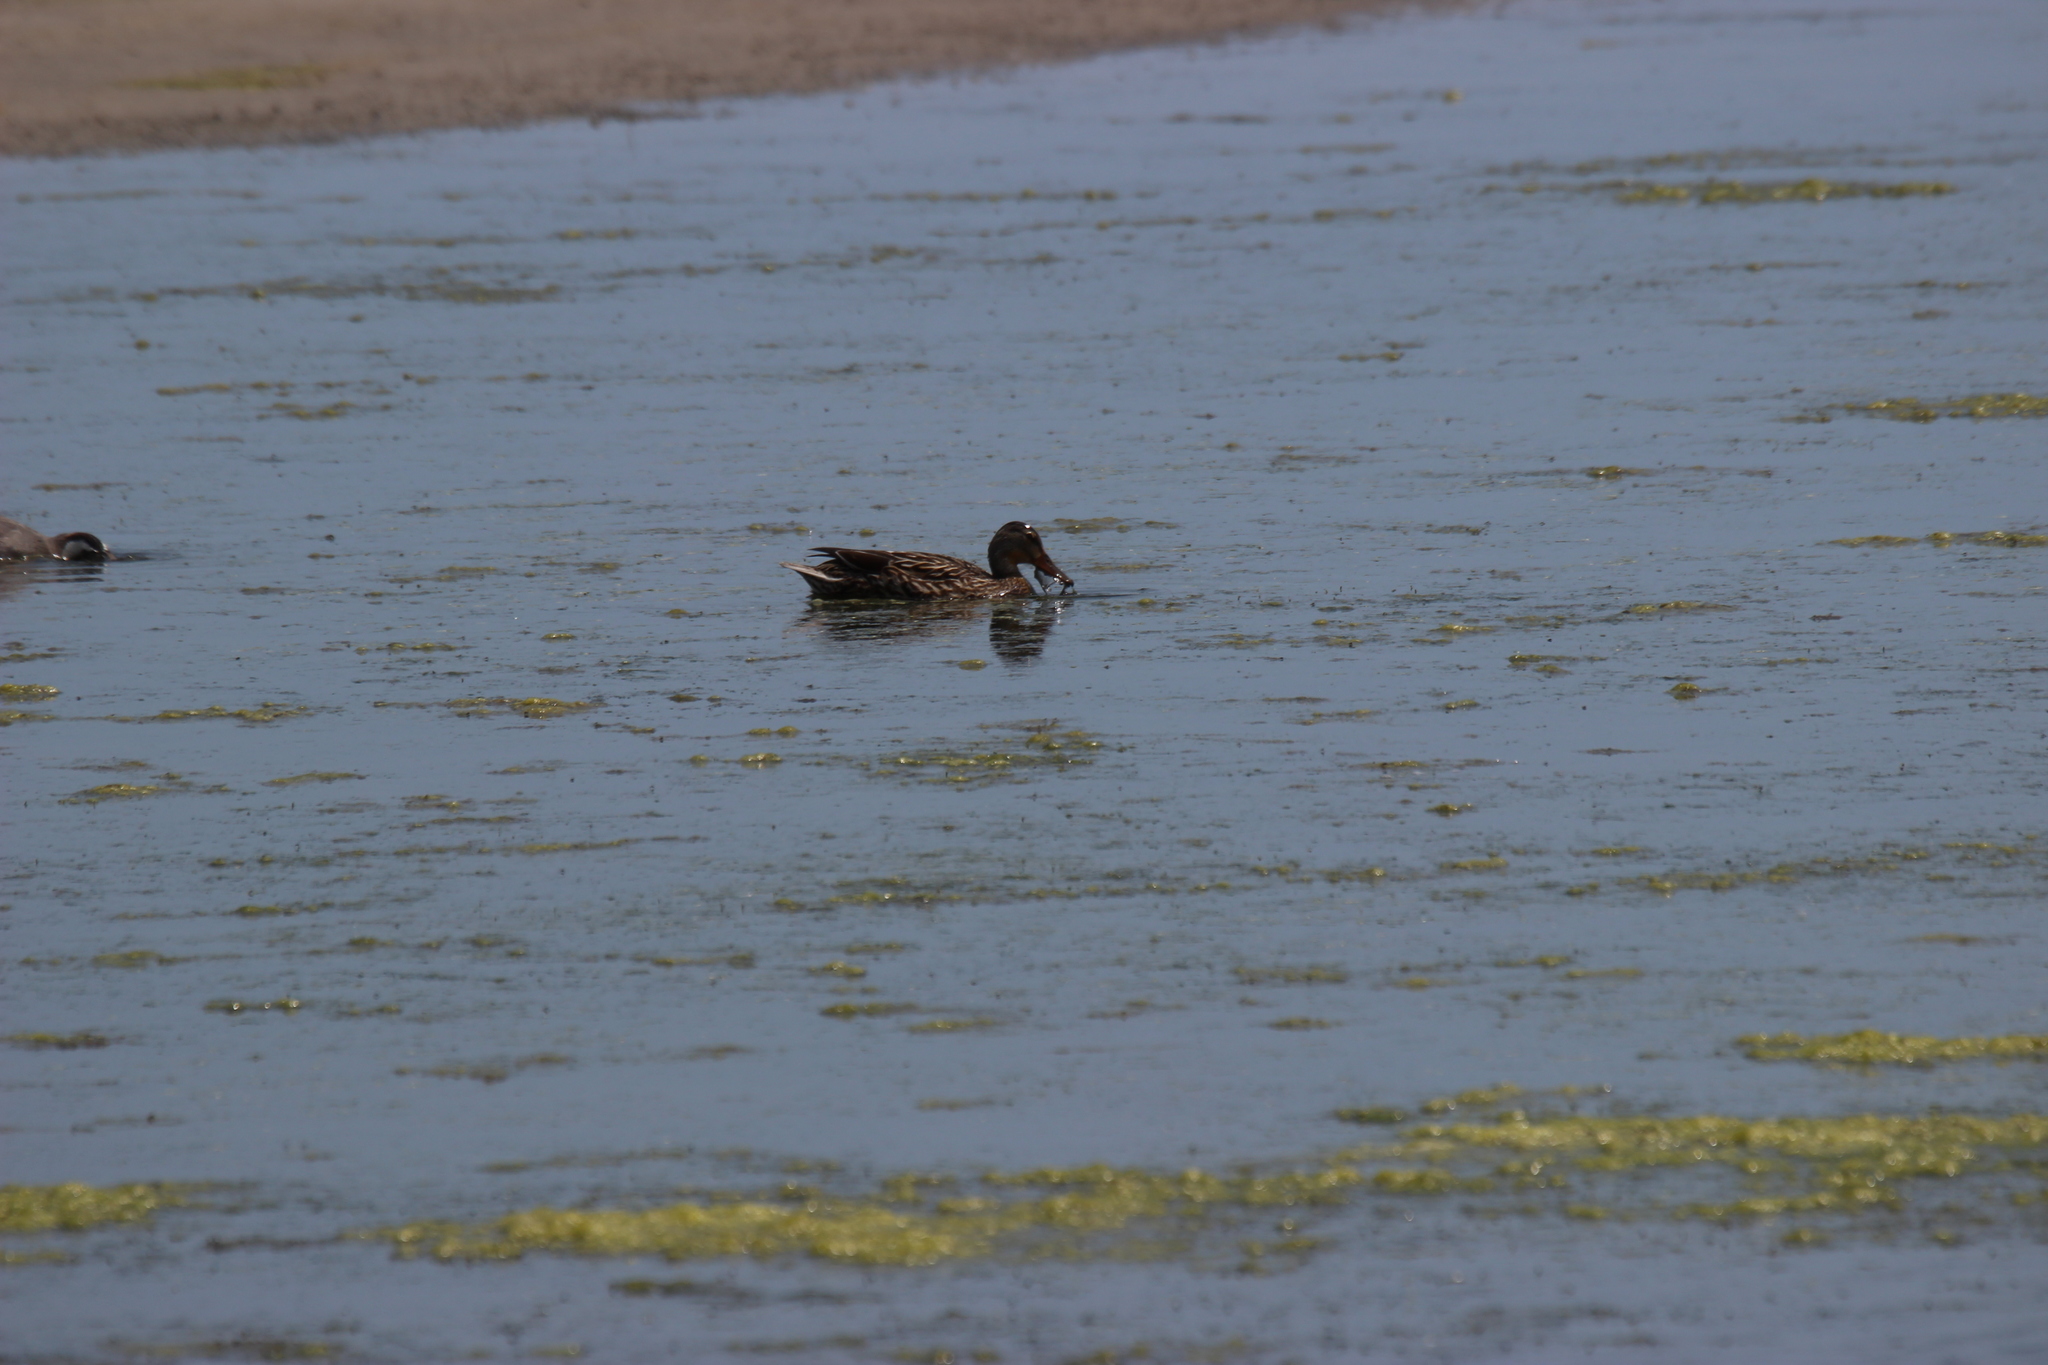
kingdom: Animalia
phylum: Chordata
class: Aves
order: Anseriformes
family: Anatidae
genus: Anas
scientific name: Anas platyrhynchos
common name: Mallard
